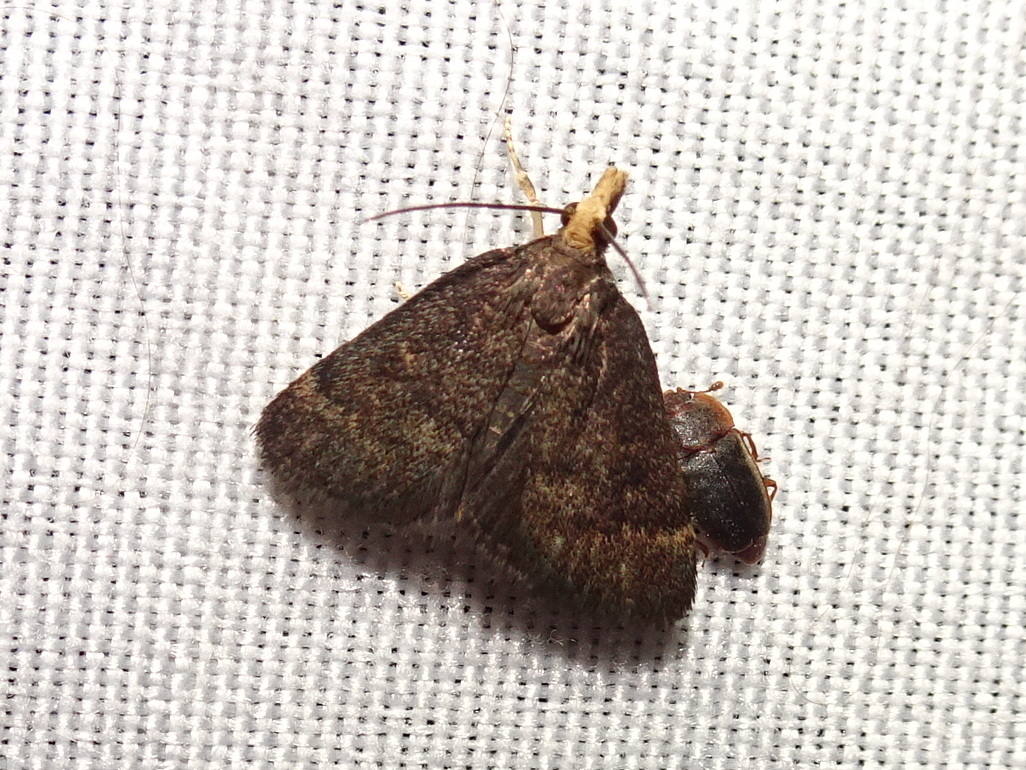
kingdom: Animalia
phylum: Arthropoda
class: Insecta
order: Lepidoptera
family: Crambidae
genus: Pyrausta
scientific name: Pyrausta merrickalis
